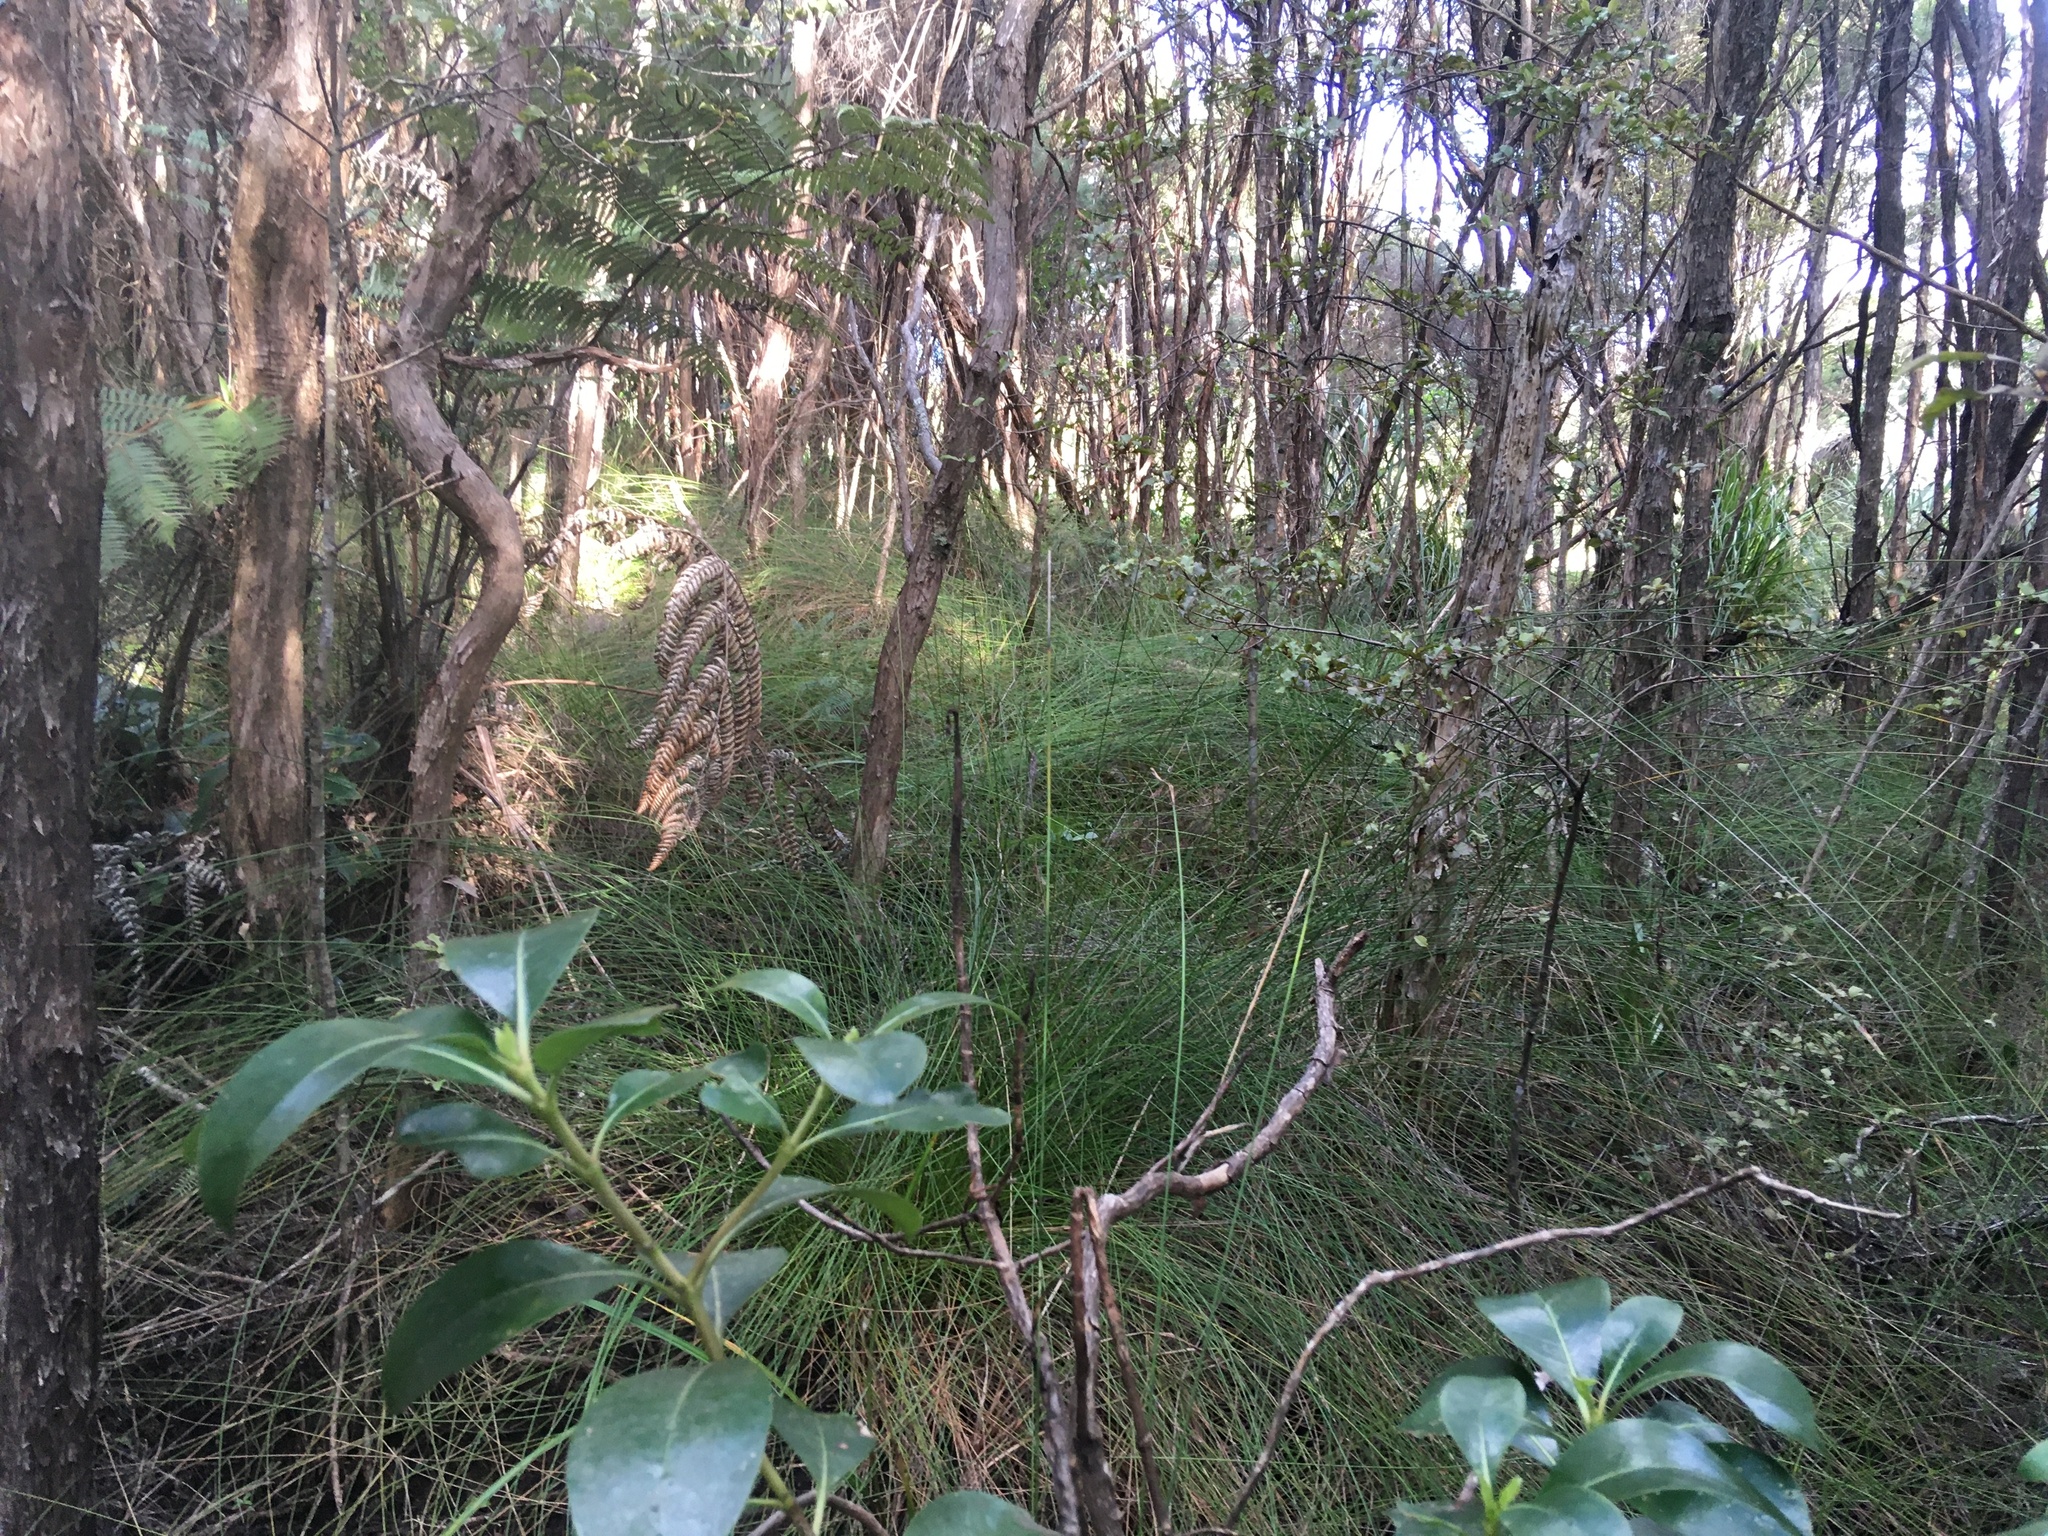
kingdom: Plantae
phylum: Tracheophyta
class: Polypodiopsida
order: Cyatheales
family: Cyatheaceae
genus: Alsophila
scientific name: Alsophila dealbata
